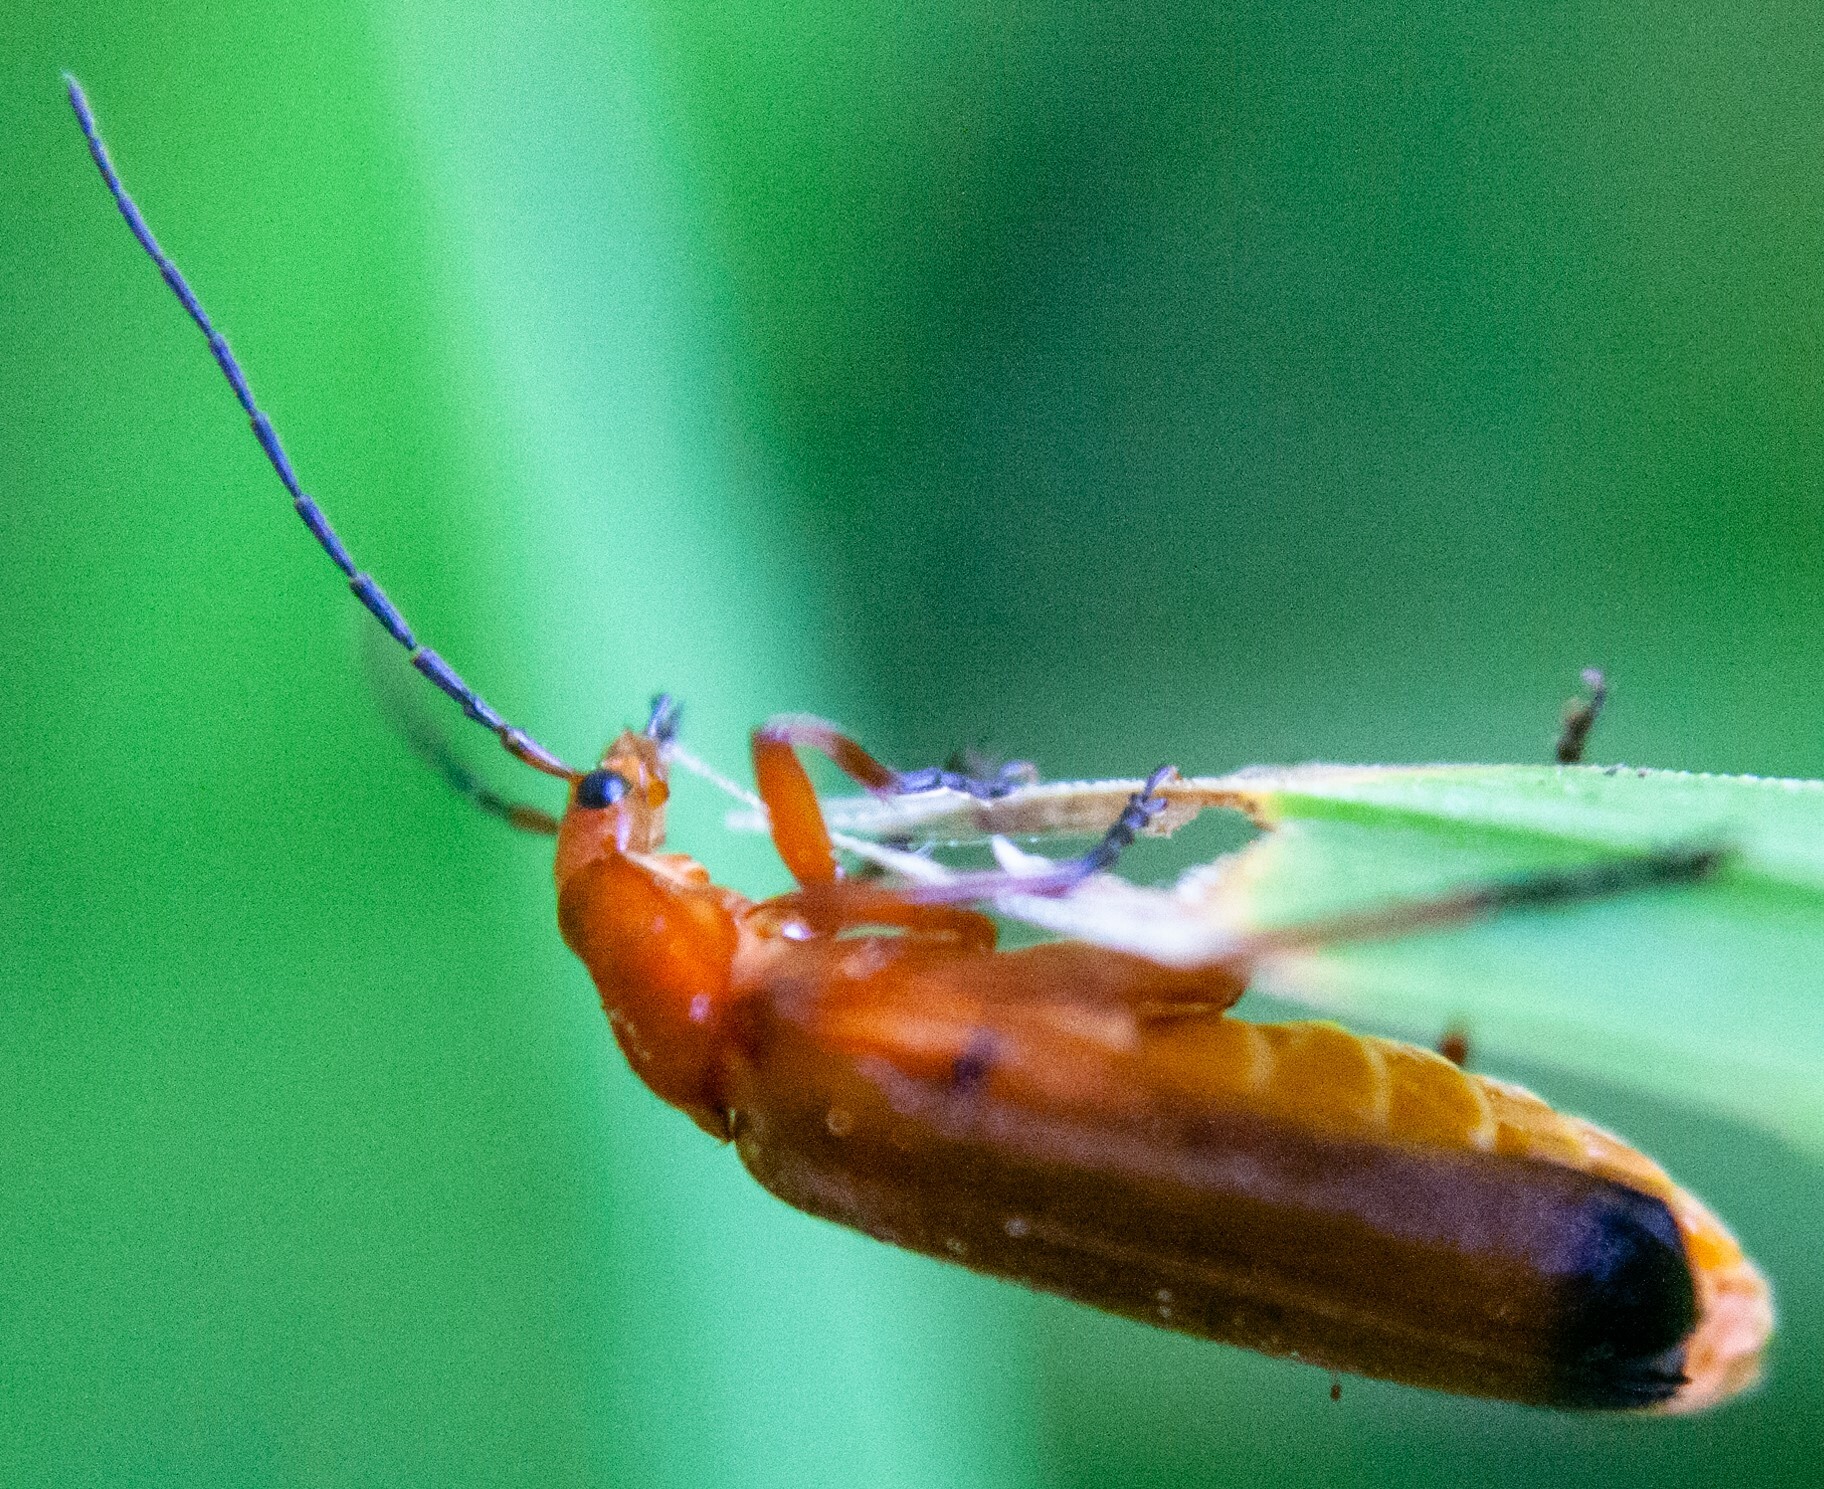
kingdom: Animalia
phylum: Arthropoda
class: Insecta
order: Coleoptera
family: Cantharidae
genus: Rhagonycha
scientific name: Rhagonycha fulva
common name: Common red soldier beetle
